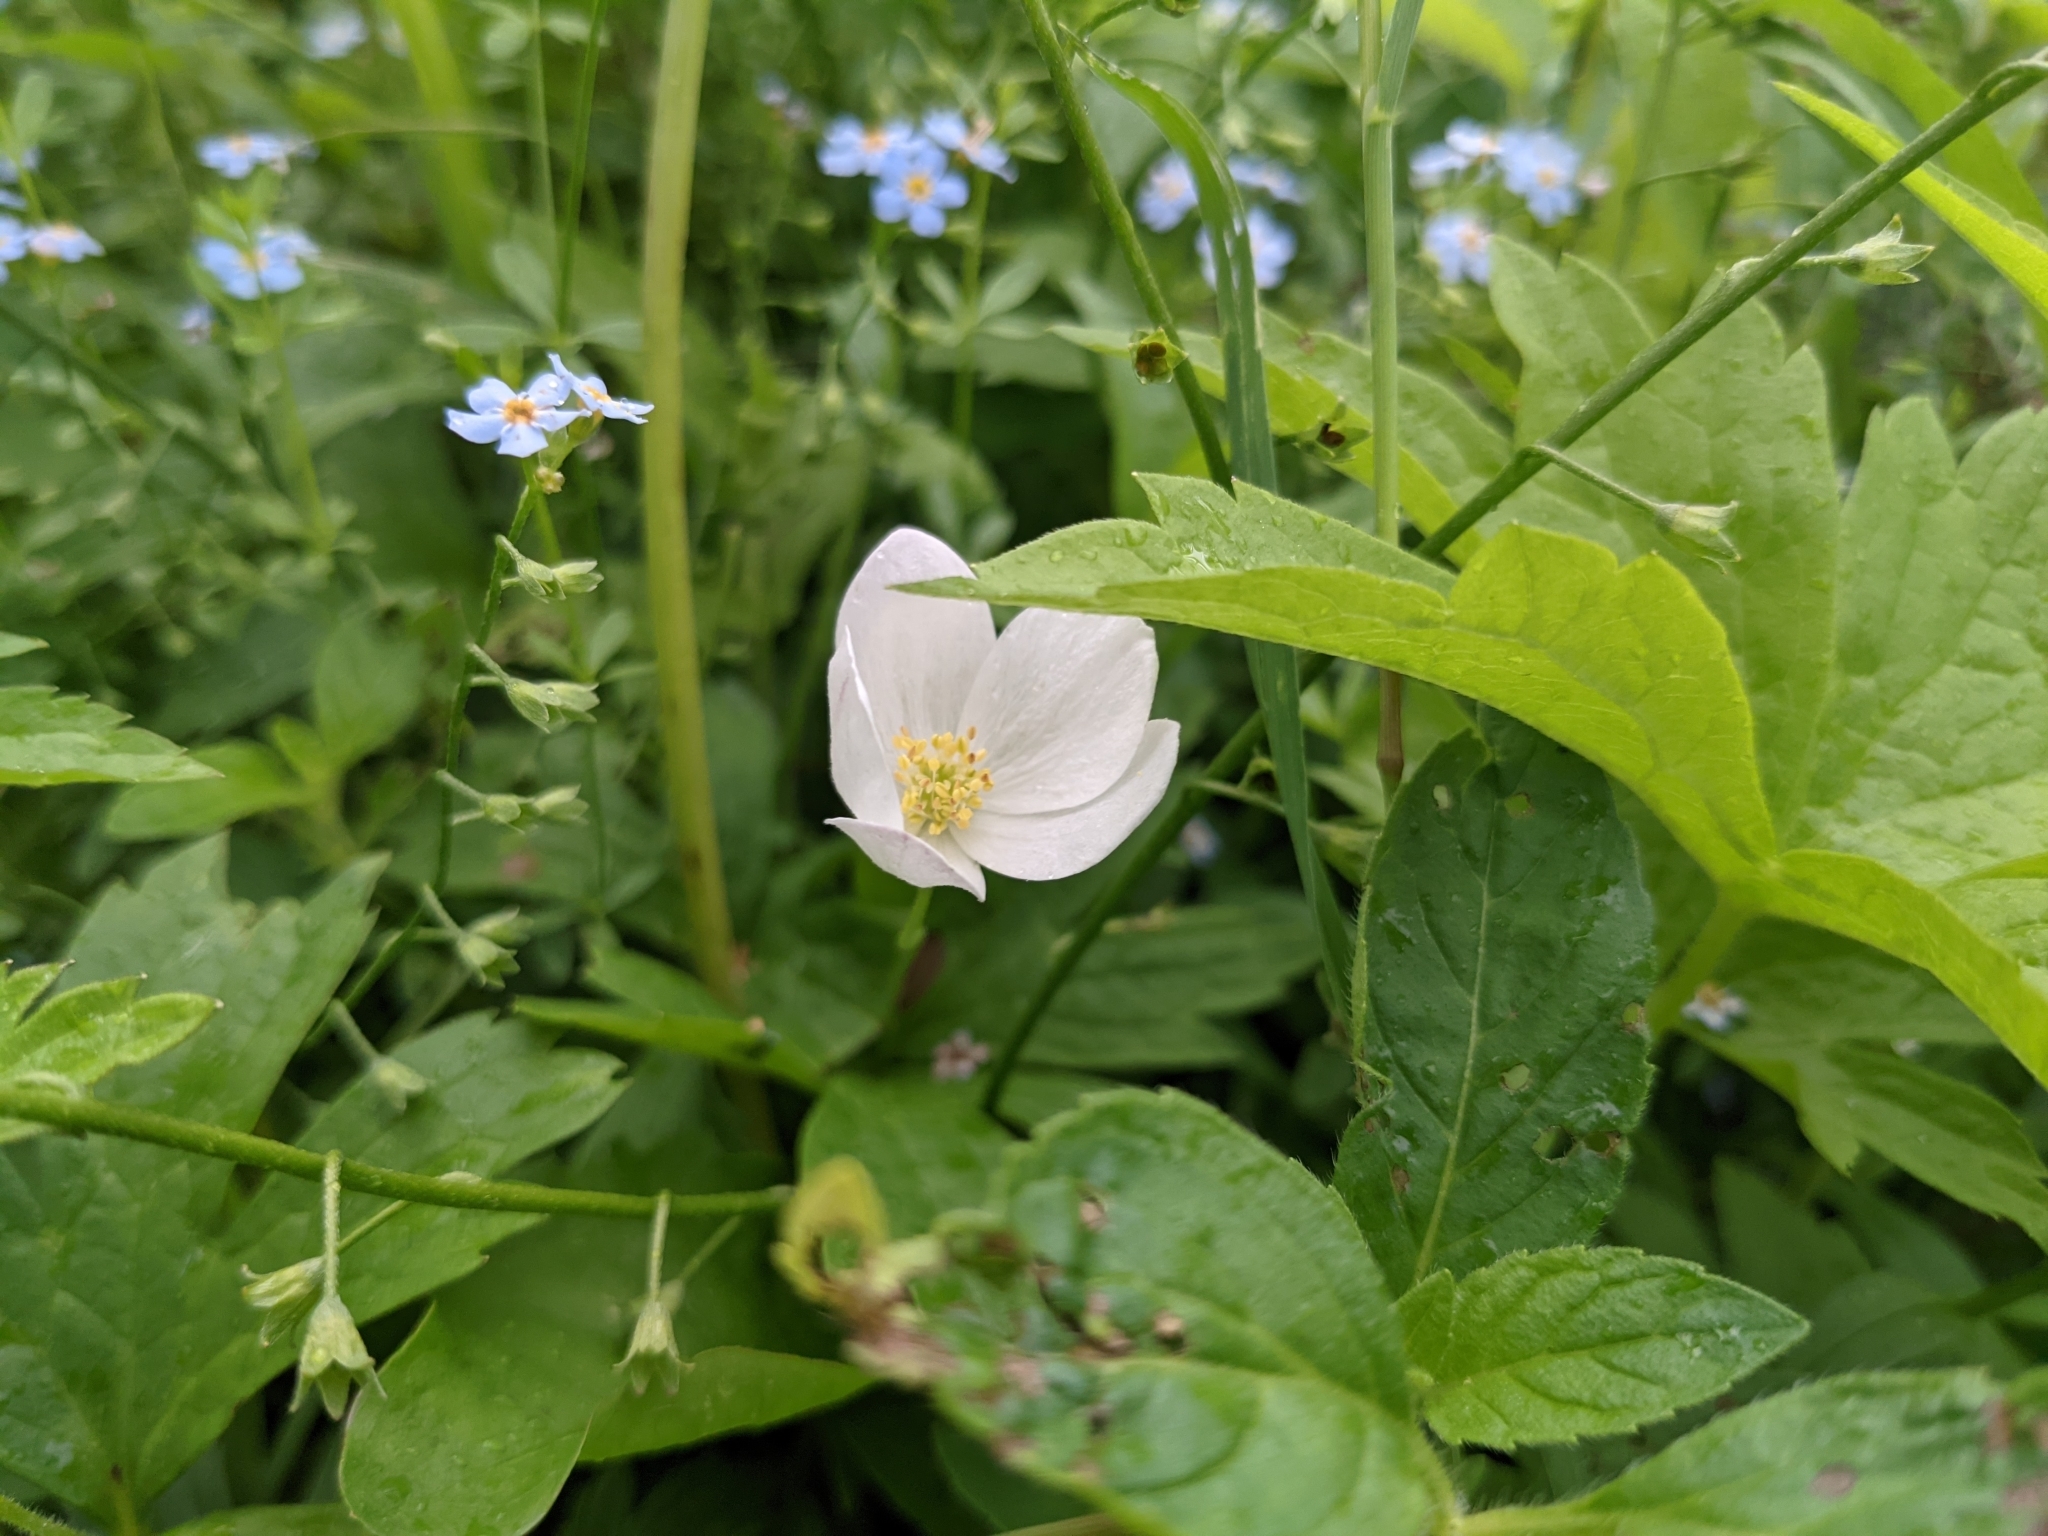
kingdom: Plantae
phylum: Tracheophyta
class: Magnoliopsida
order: Ranunculales
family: Ranunculaceae
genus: Anemonastrum
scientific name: Anemonastrum canadense
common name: Canada anemone
